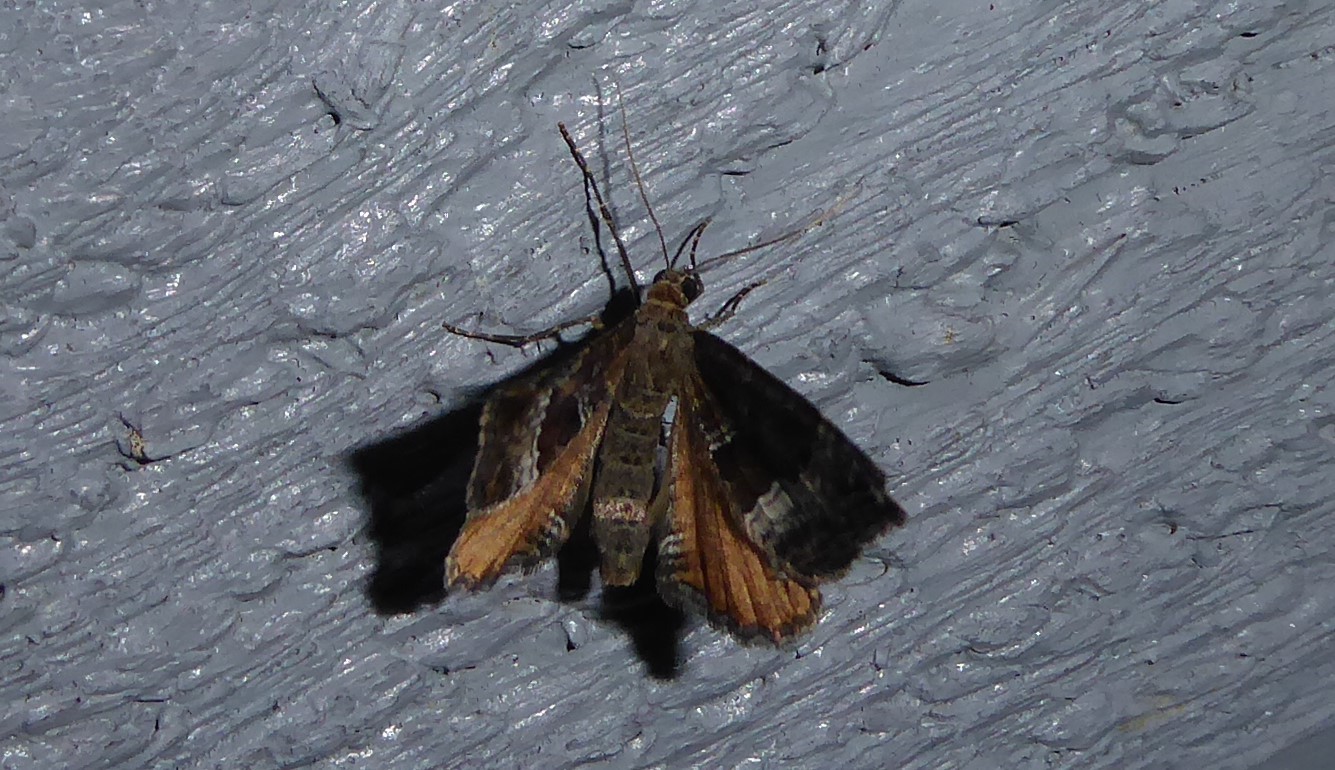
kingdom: Animalia
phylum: Arthropoda
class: Insecta
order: Lepidoptera
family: Geometridae
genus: Hydriomena
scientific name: Hydriomena deltoidata
